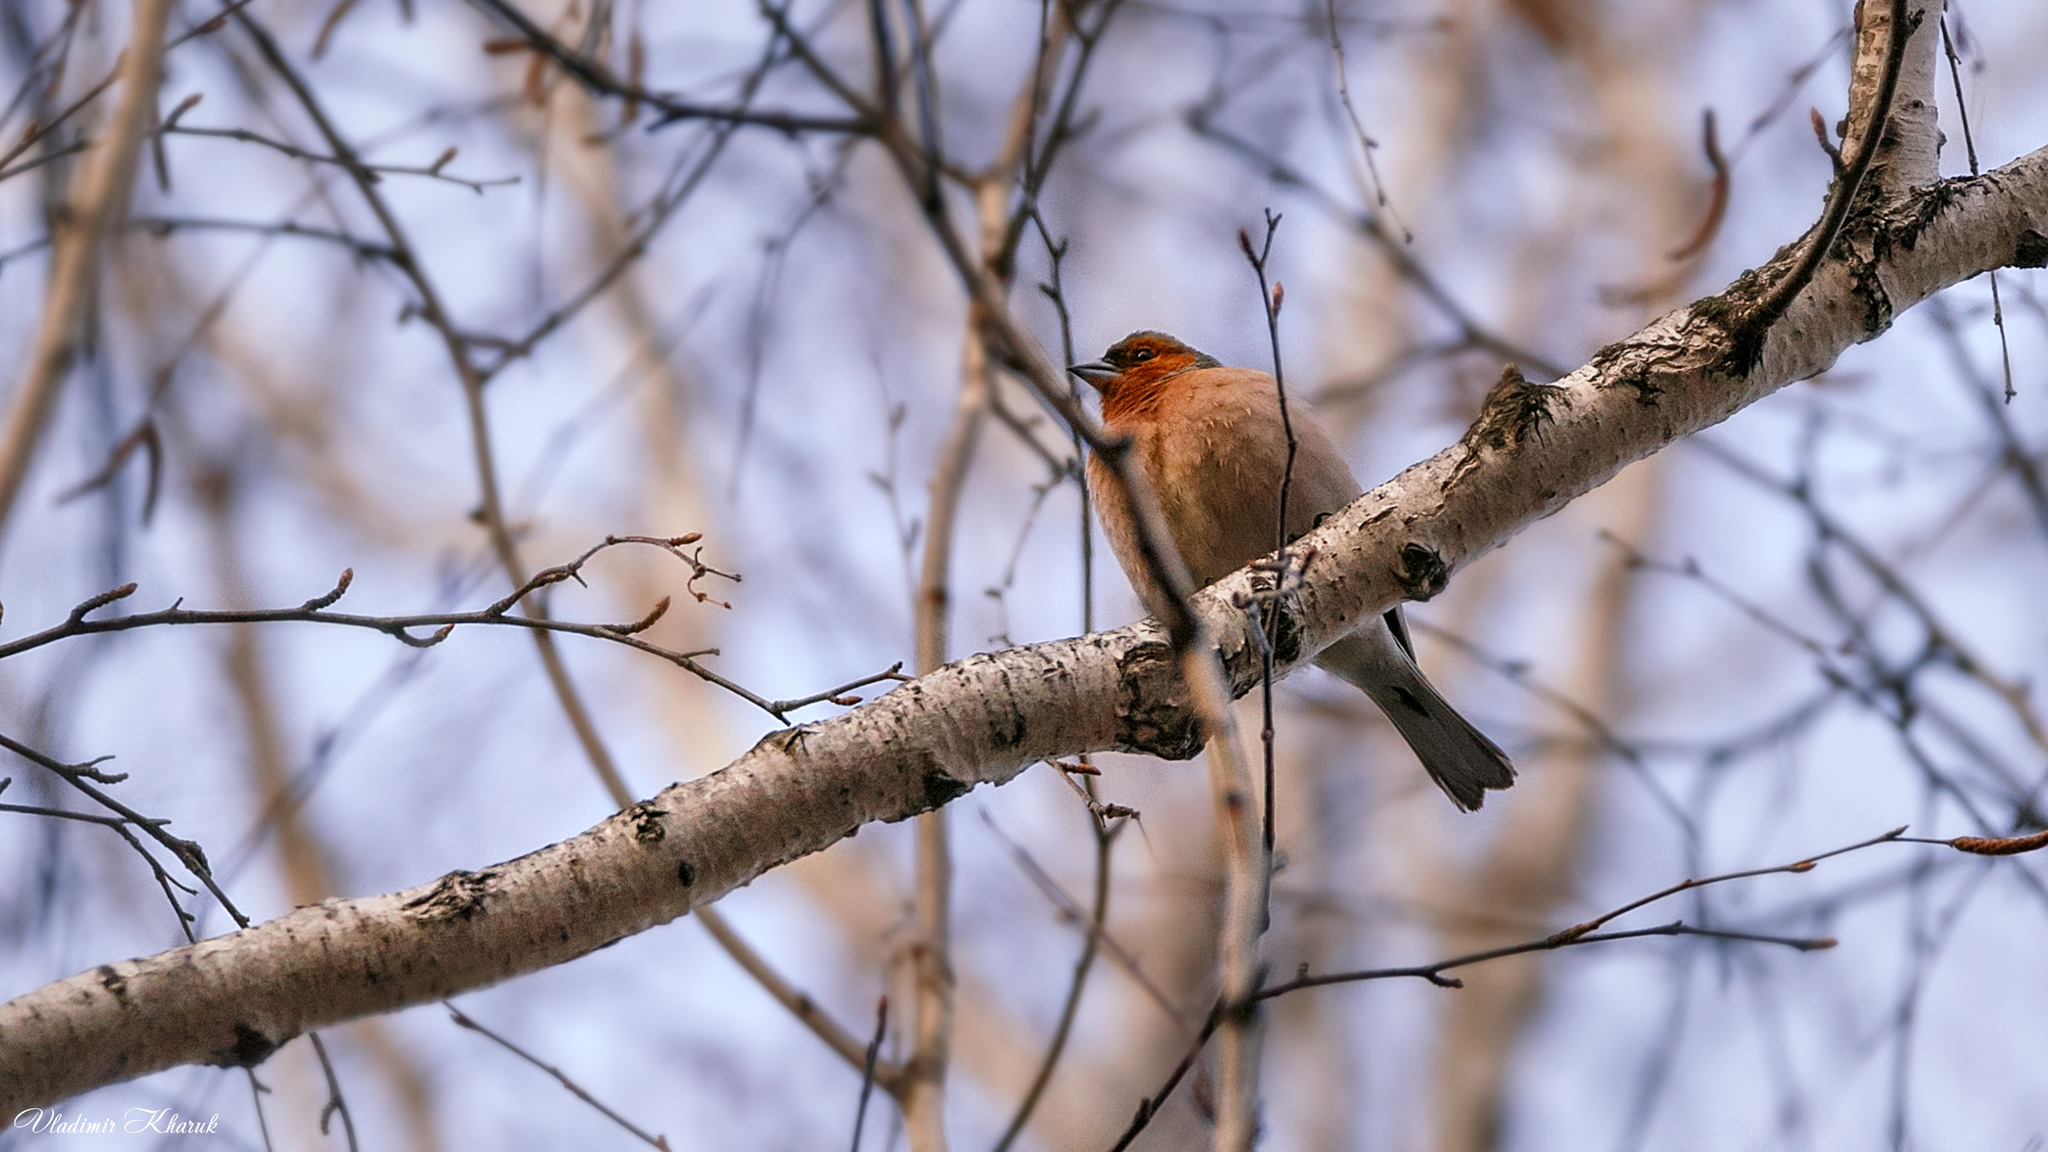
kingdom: Animalia
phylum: Chordata
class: Aves
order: Passeriformes
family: Fringillidae
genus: Fringilla
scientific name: Fringilla coelebs
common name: Common chaffinch
